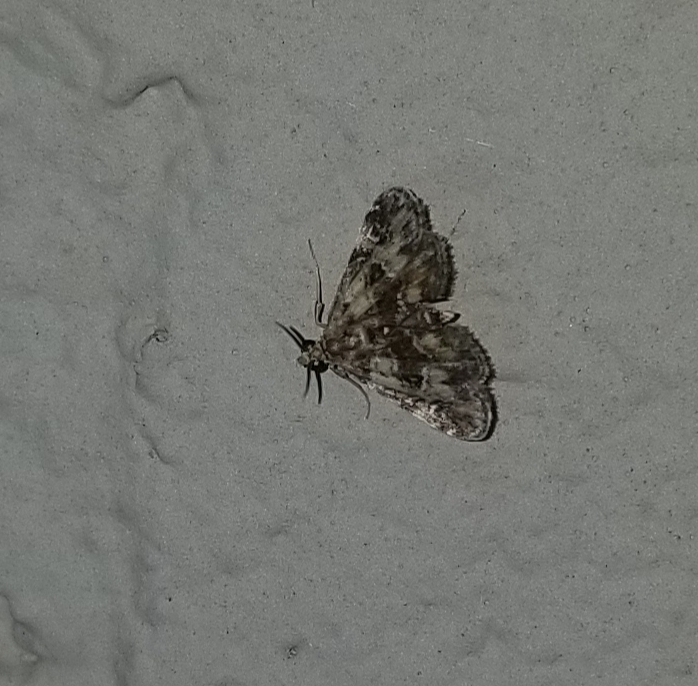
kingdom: Animalia
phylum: Arthropoda
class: Insecta
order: Lepidoptera
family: Crambidae
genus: Elophila
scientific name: Elophila obliteralis
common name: Waterlily leafcutter moth
